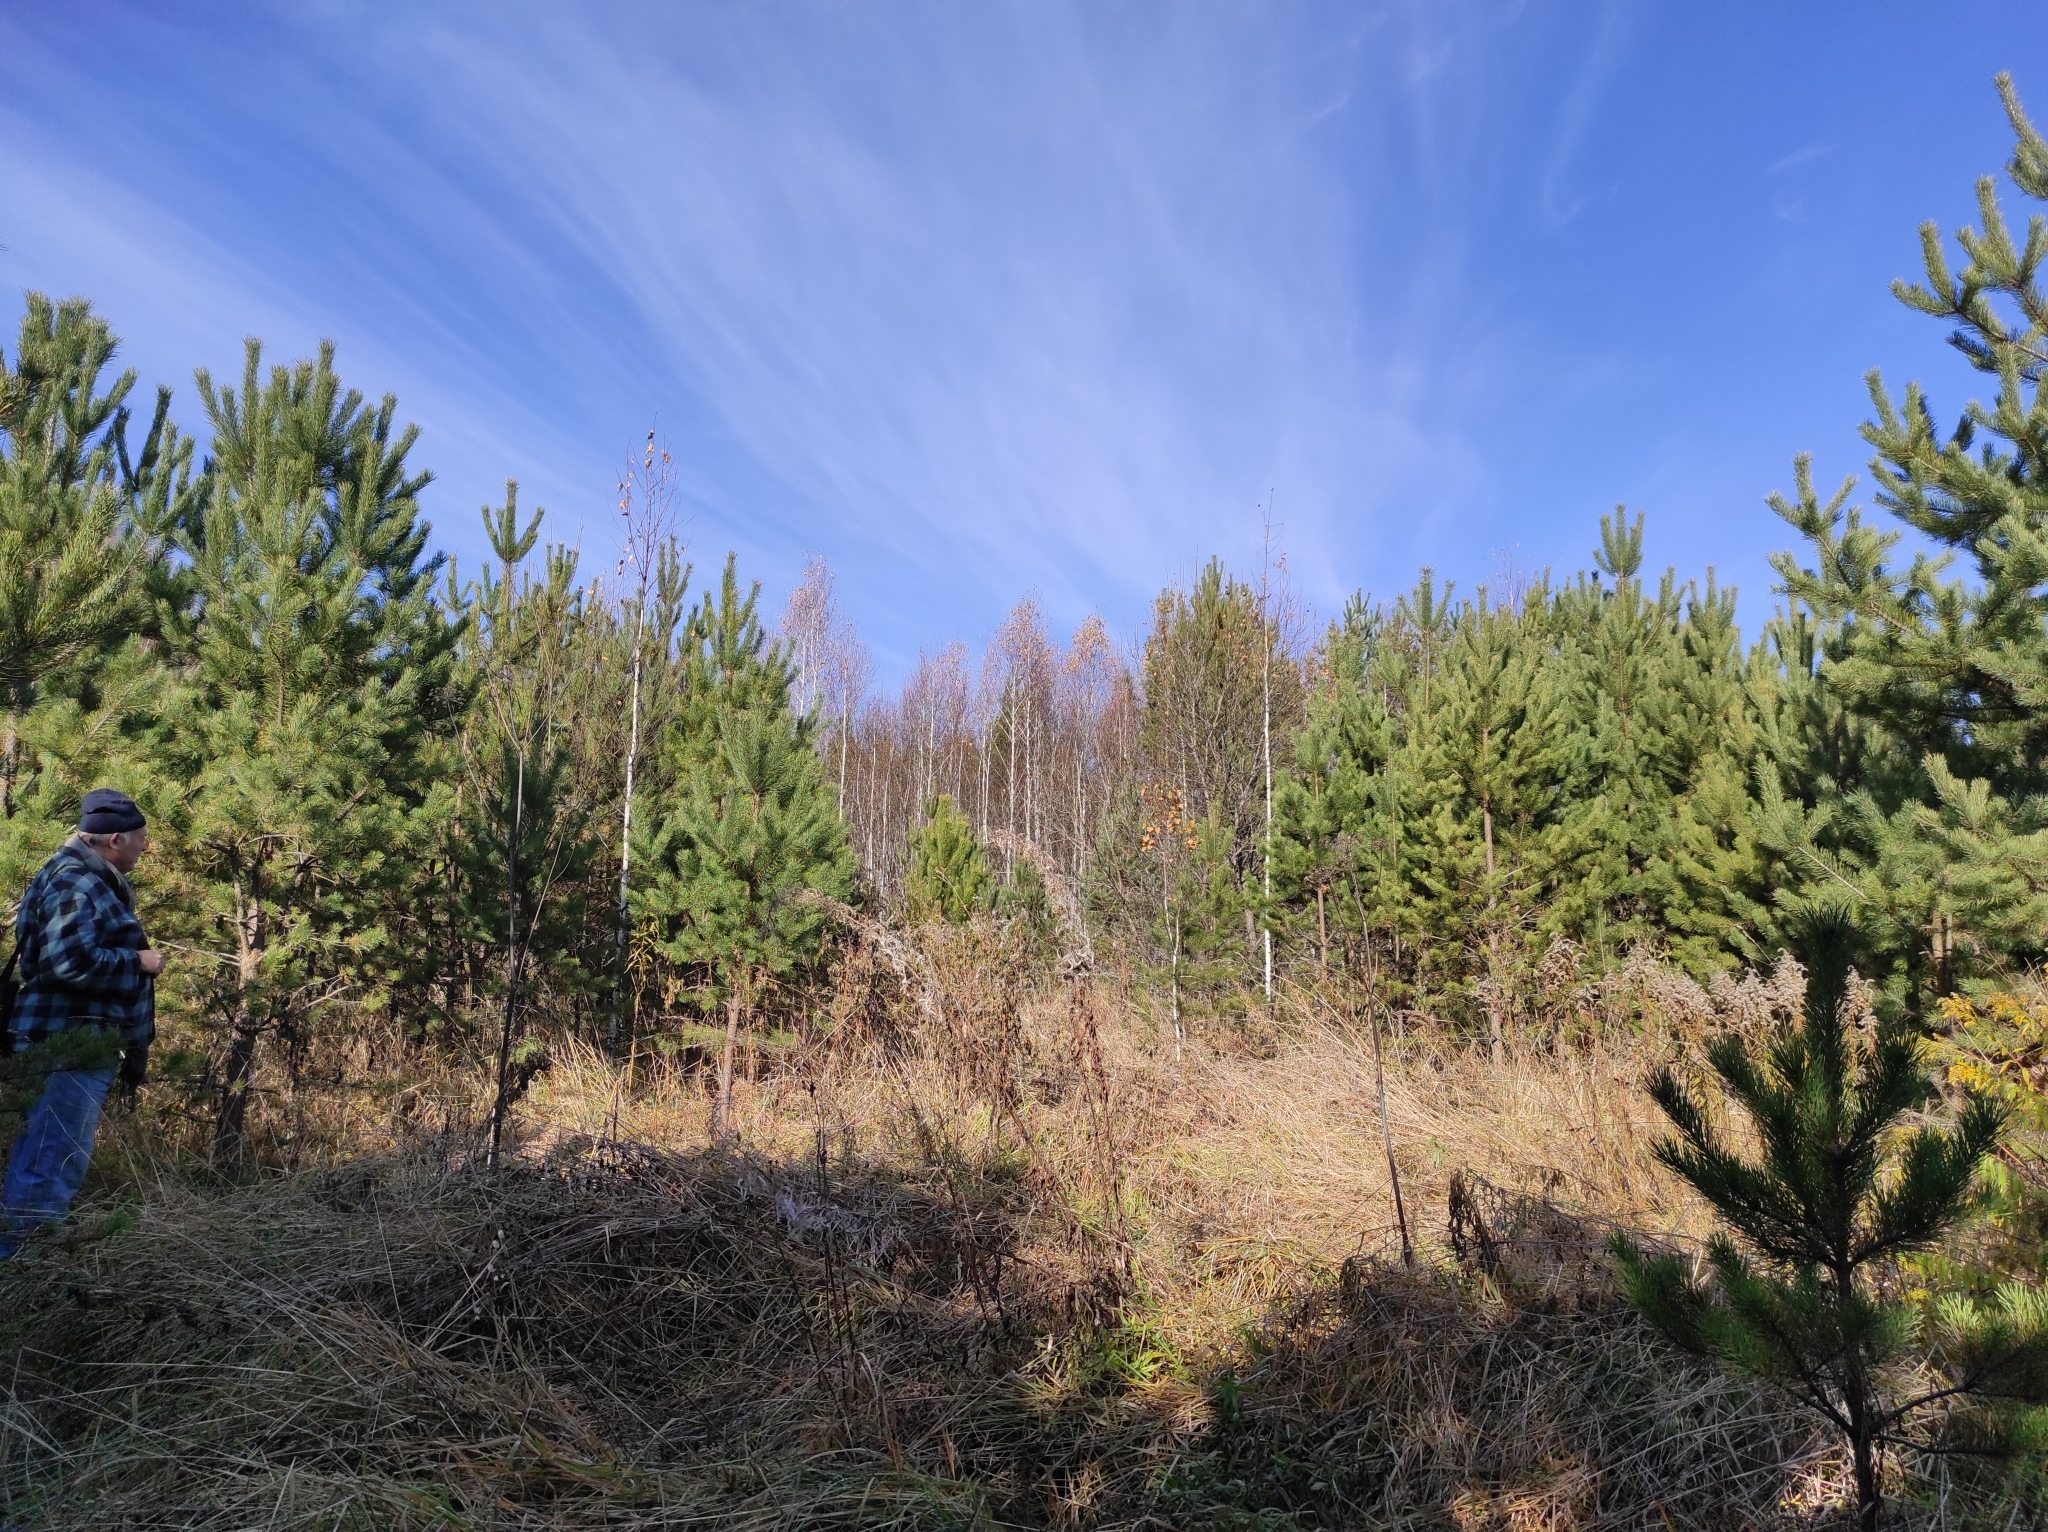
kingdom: Plantae
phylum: Tracheophyta
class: Pinopsida
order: Pinales
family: Pinaceae
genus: Pinus
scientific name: Pinus sylvestris
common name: Scots pine
